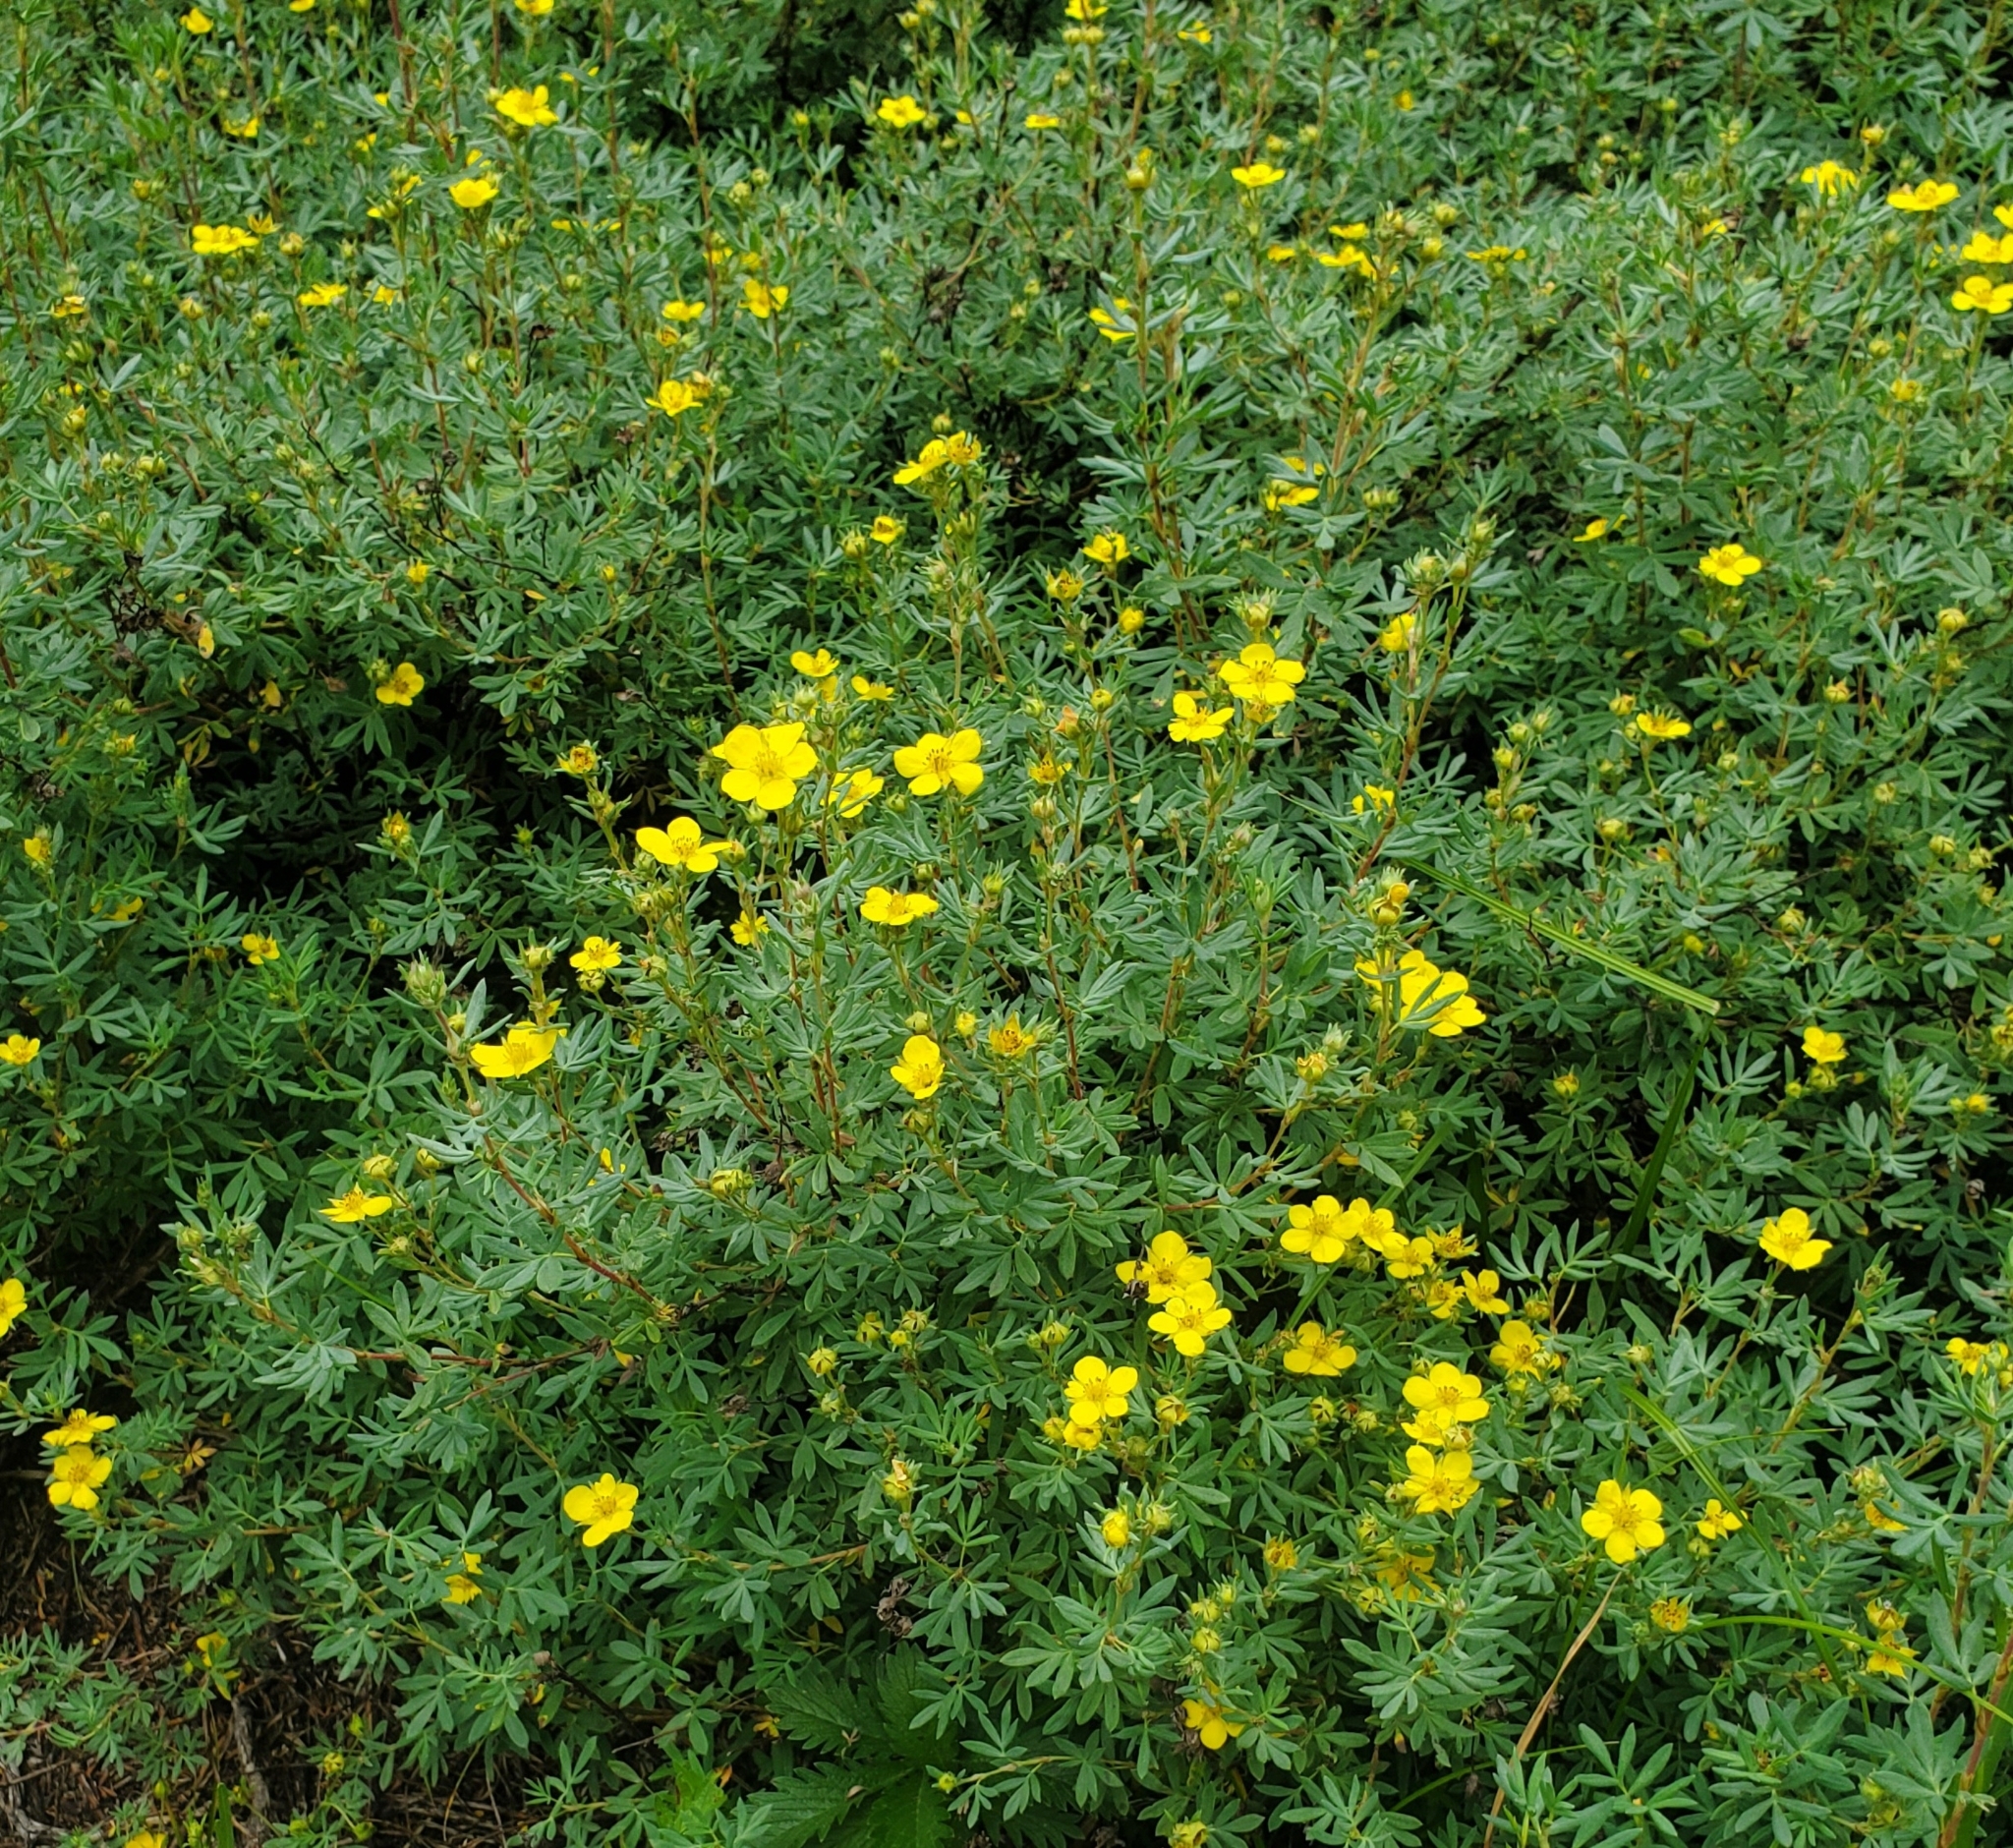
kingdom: Plantae
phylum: Tracheophyta
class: Magnoliopsida
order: Rosales
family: Rosaceae
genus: Dasiphora
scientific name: Dasiphora fruticosa
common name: Shrubby cinquefoil
